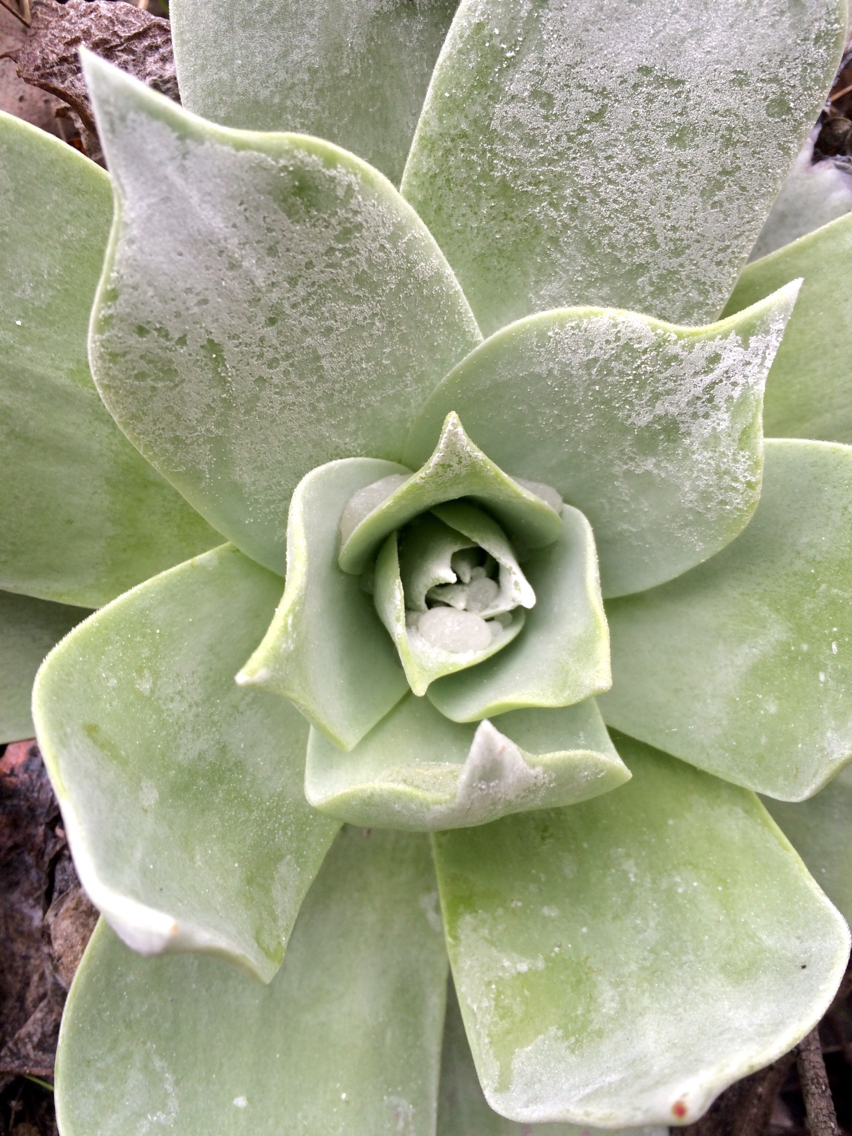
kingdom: Plantae
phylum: Tracheophyta
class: Magnoliopsida
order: Saxifragales
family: Crassulaceae
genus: Dudleya
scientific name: Dudleya pulverulenta
